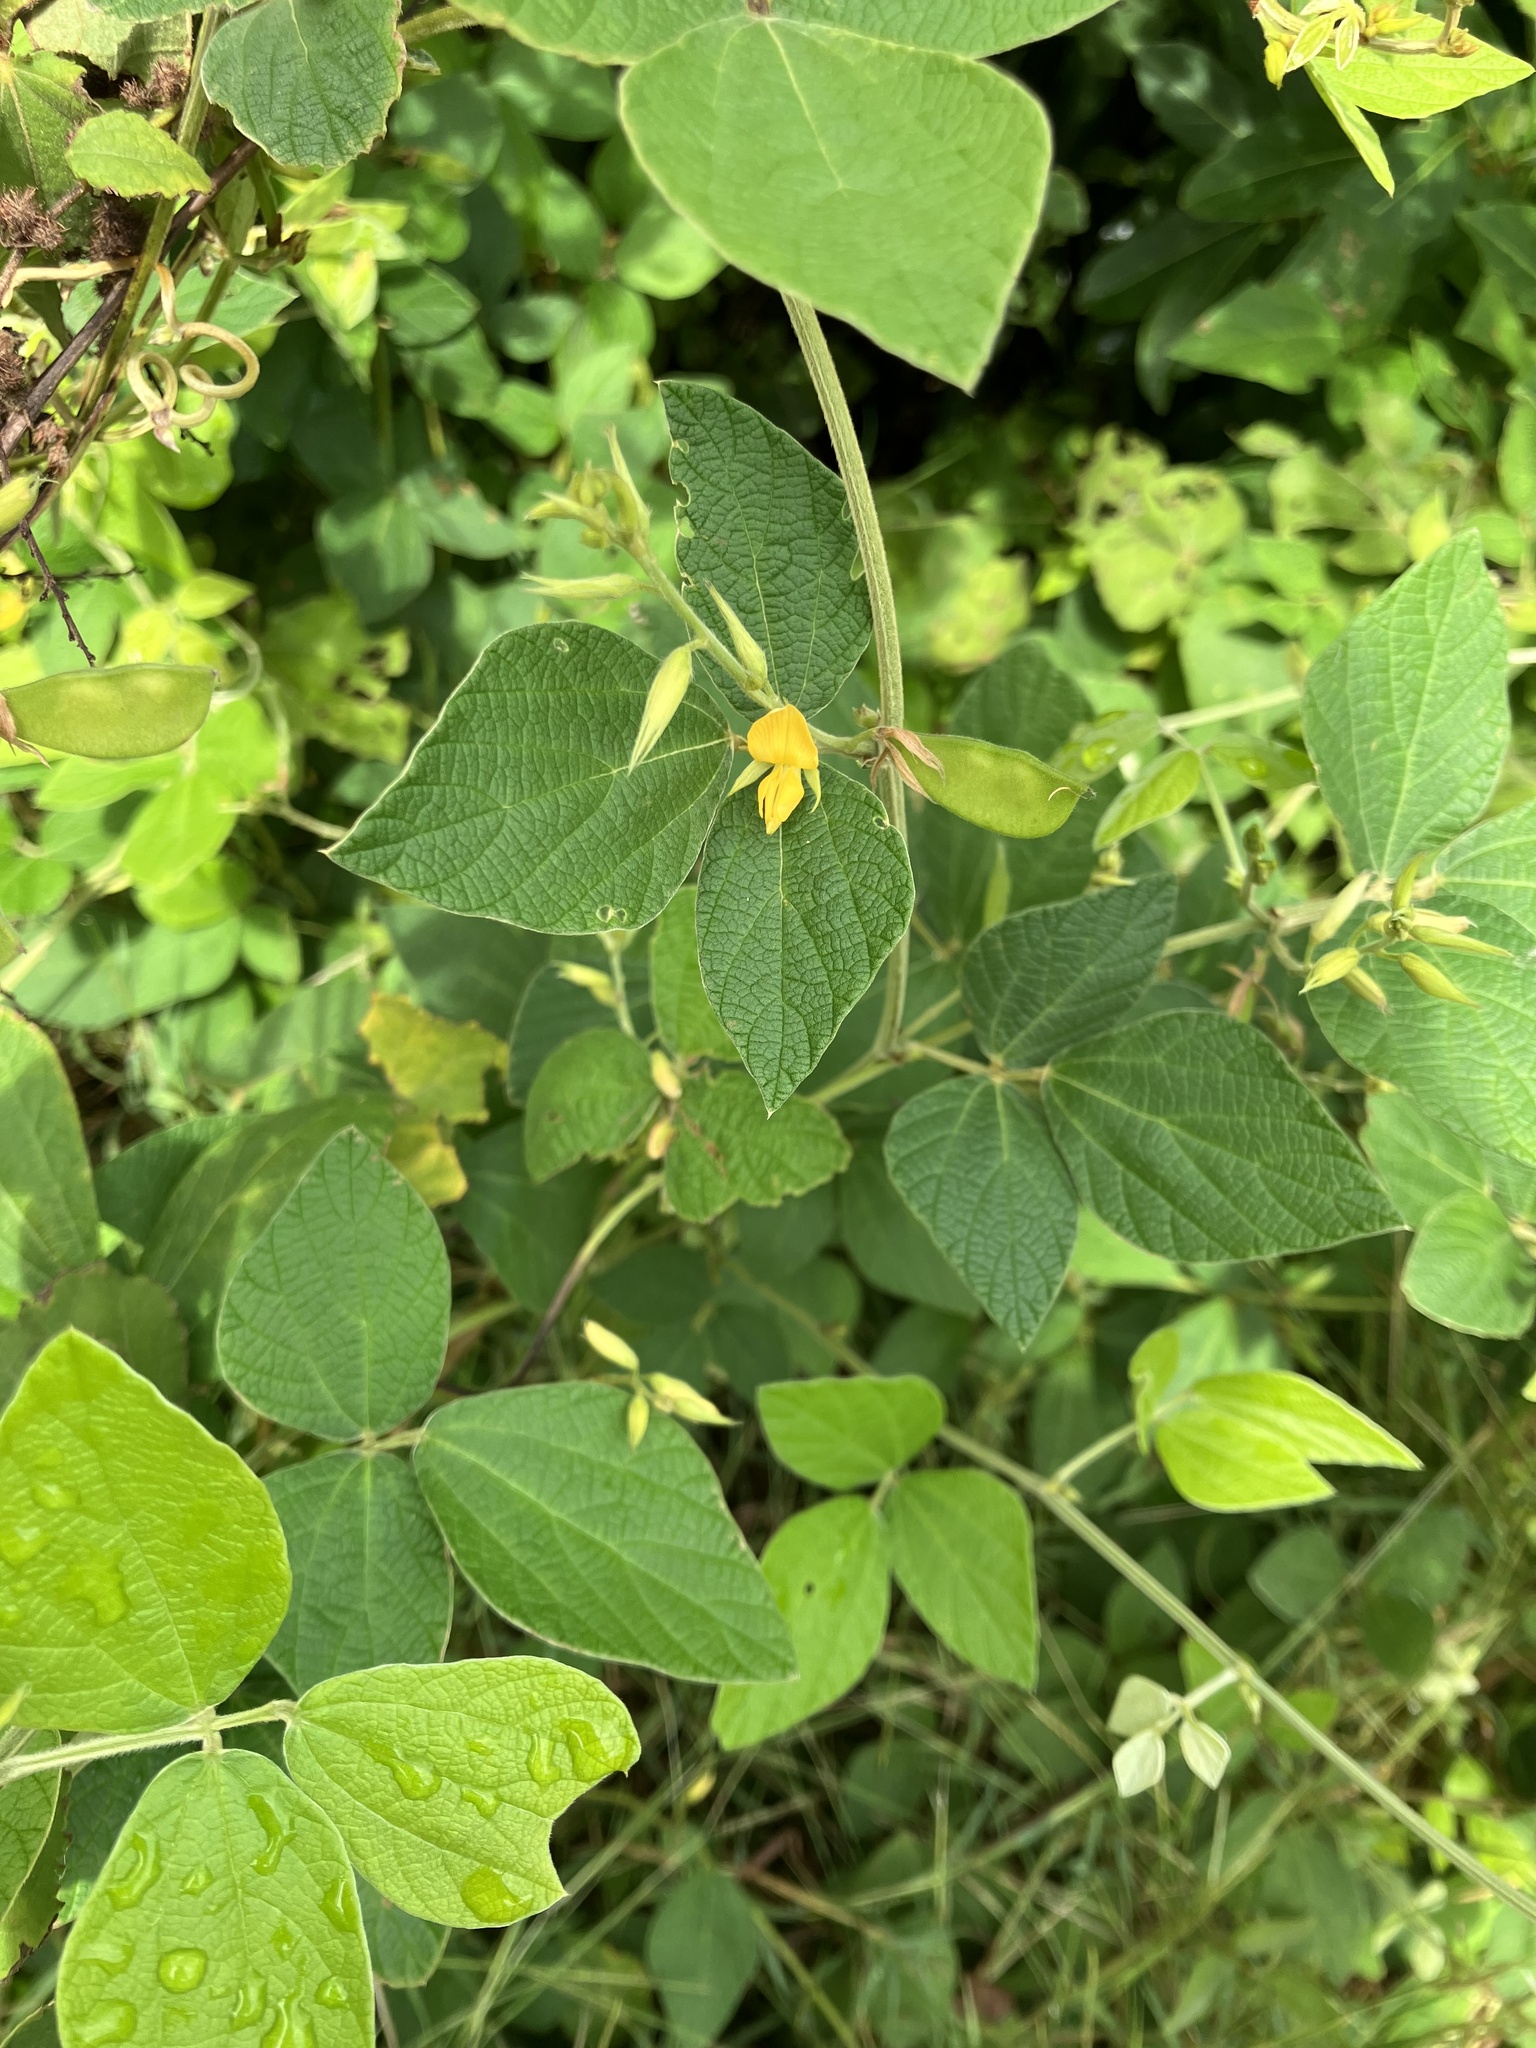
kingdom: Plantae
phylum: Tracheophyta
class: Magnoliopsida
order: Fabales
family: Fabaceae
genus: Rhynchosia
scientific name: Rhynchosia reticulata
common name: Pea withe
